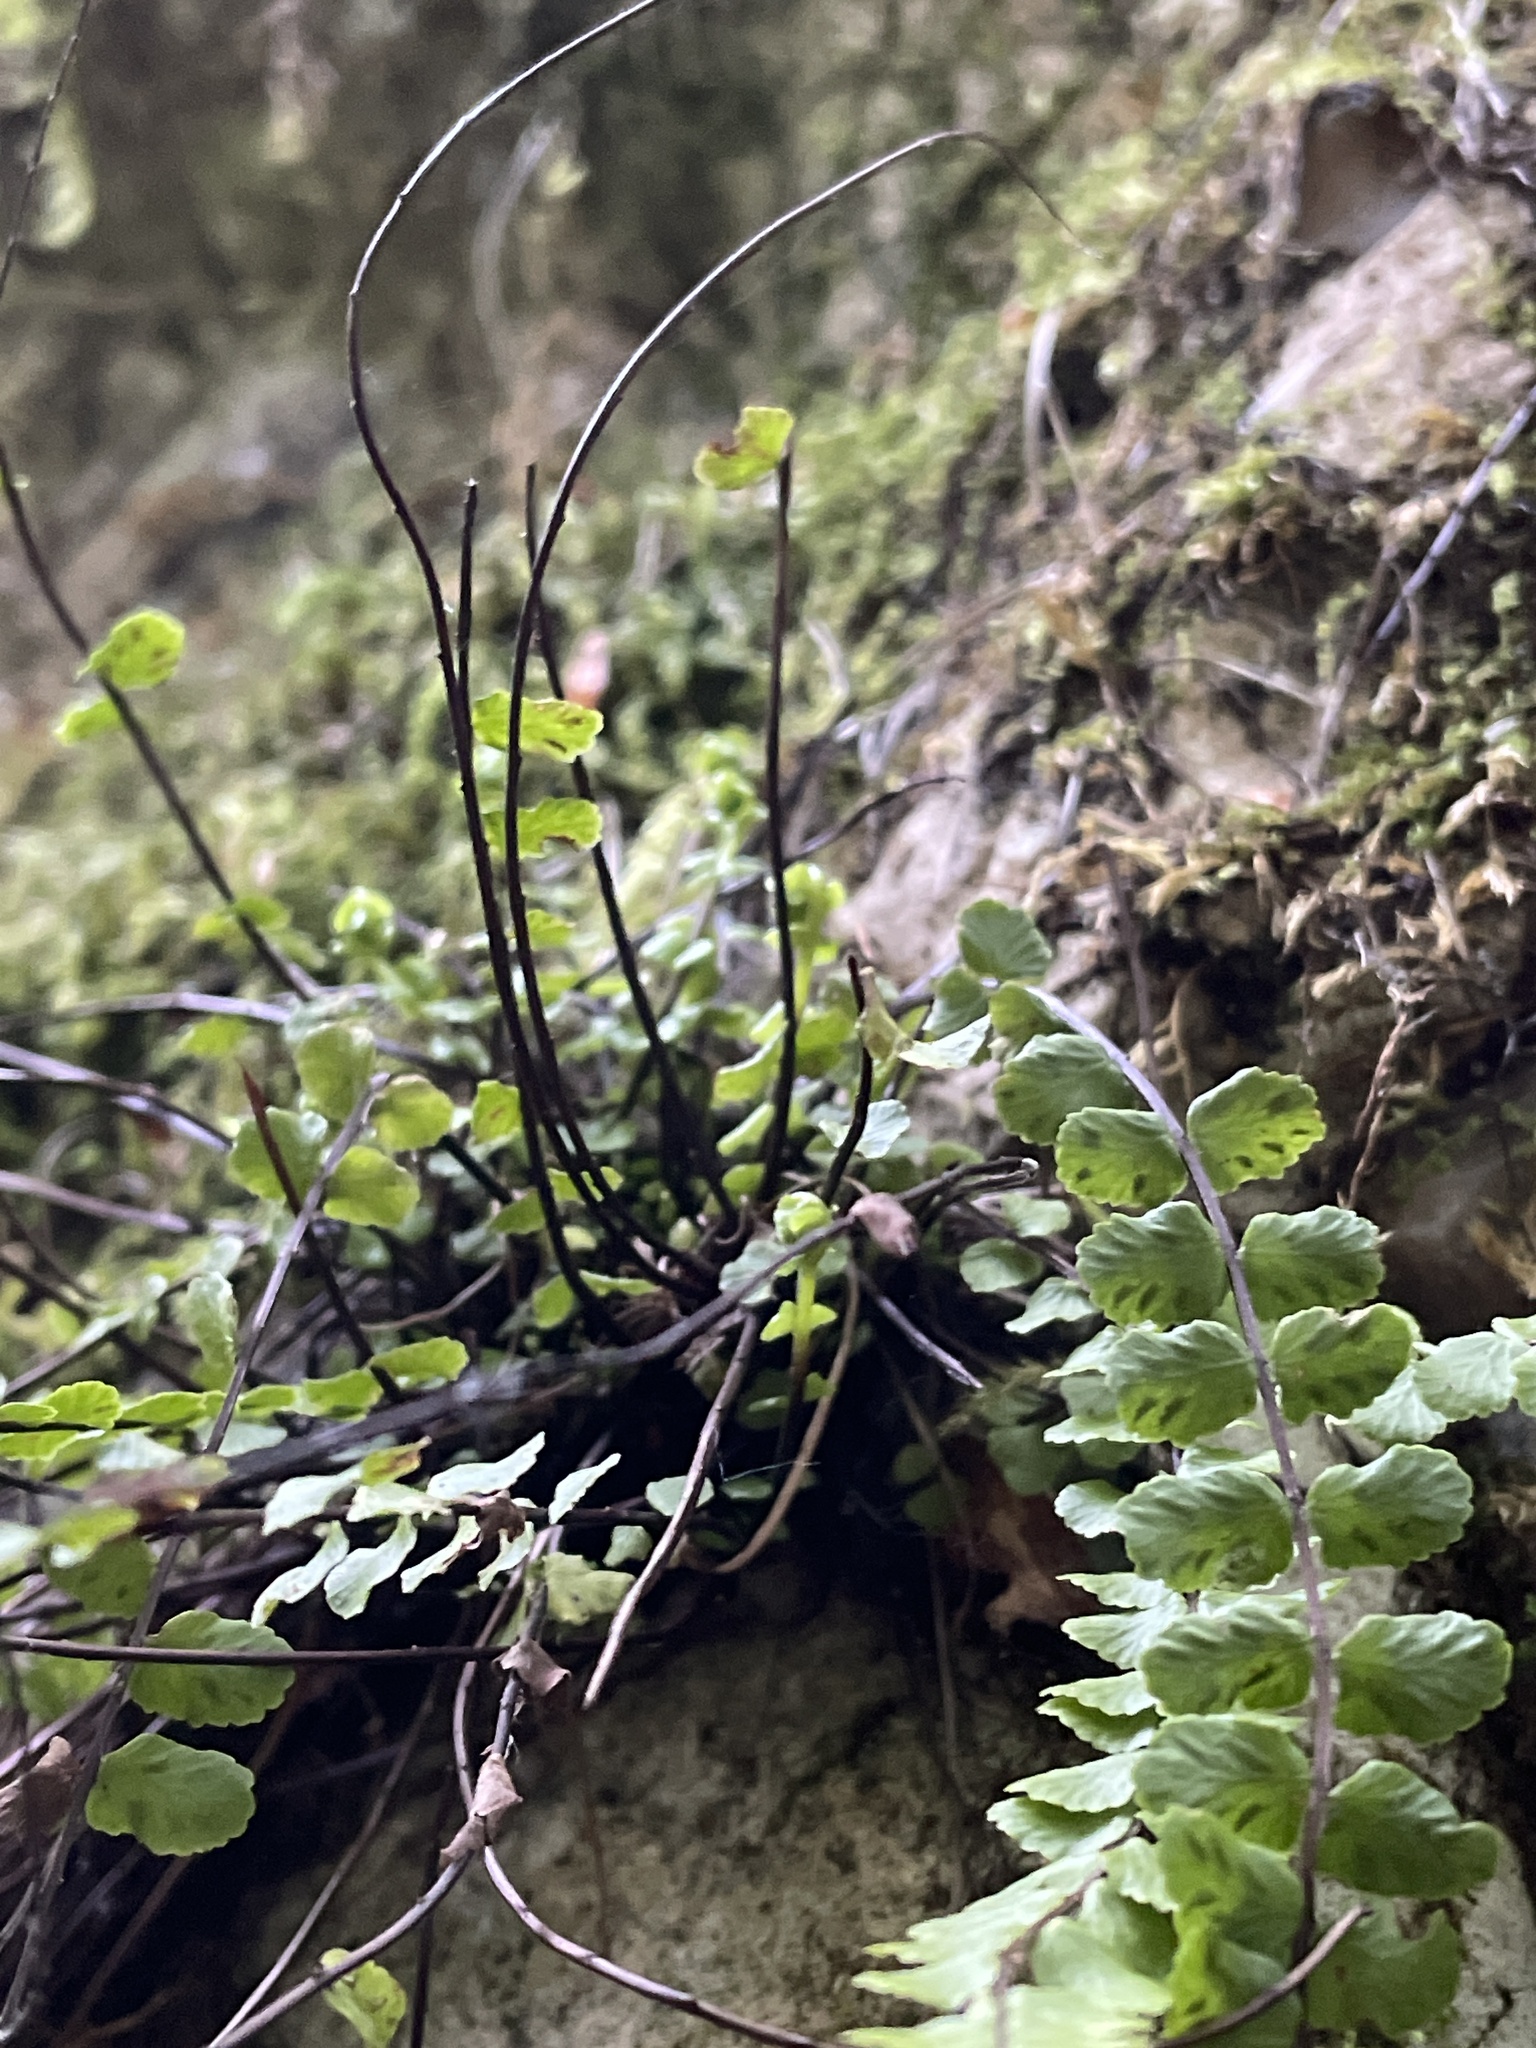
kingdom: Plantae
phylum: Tracheophyta
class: Polypodiopsida
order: Polypodiales
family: Aspleniaceae
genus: Asplenium
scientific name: Asplenium trichomanes
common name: Maidenhair spleenwort
